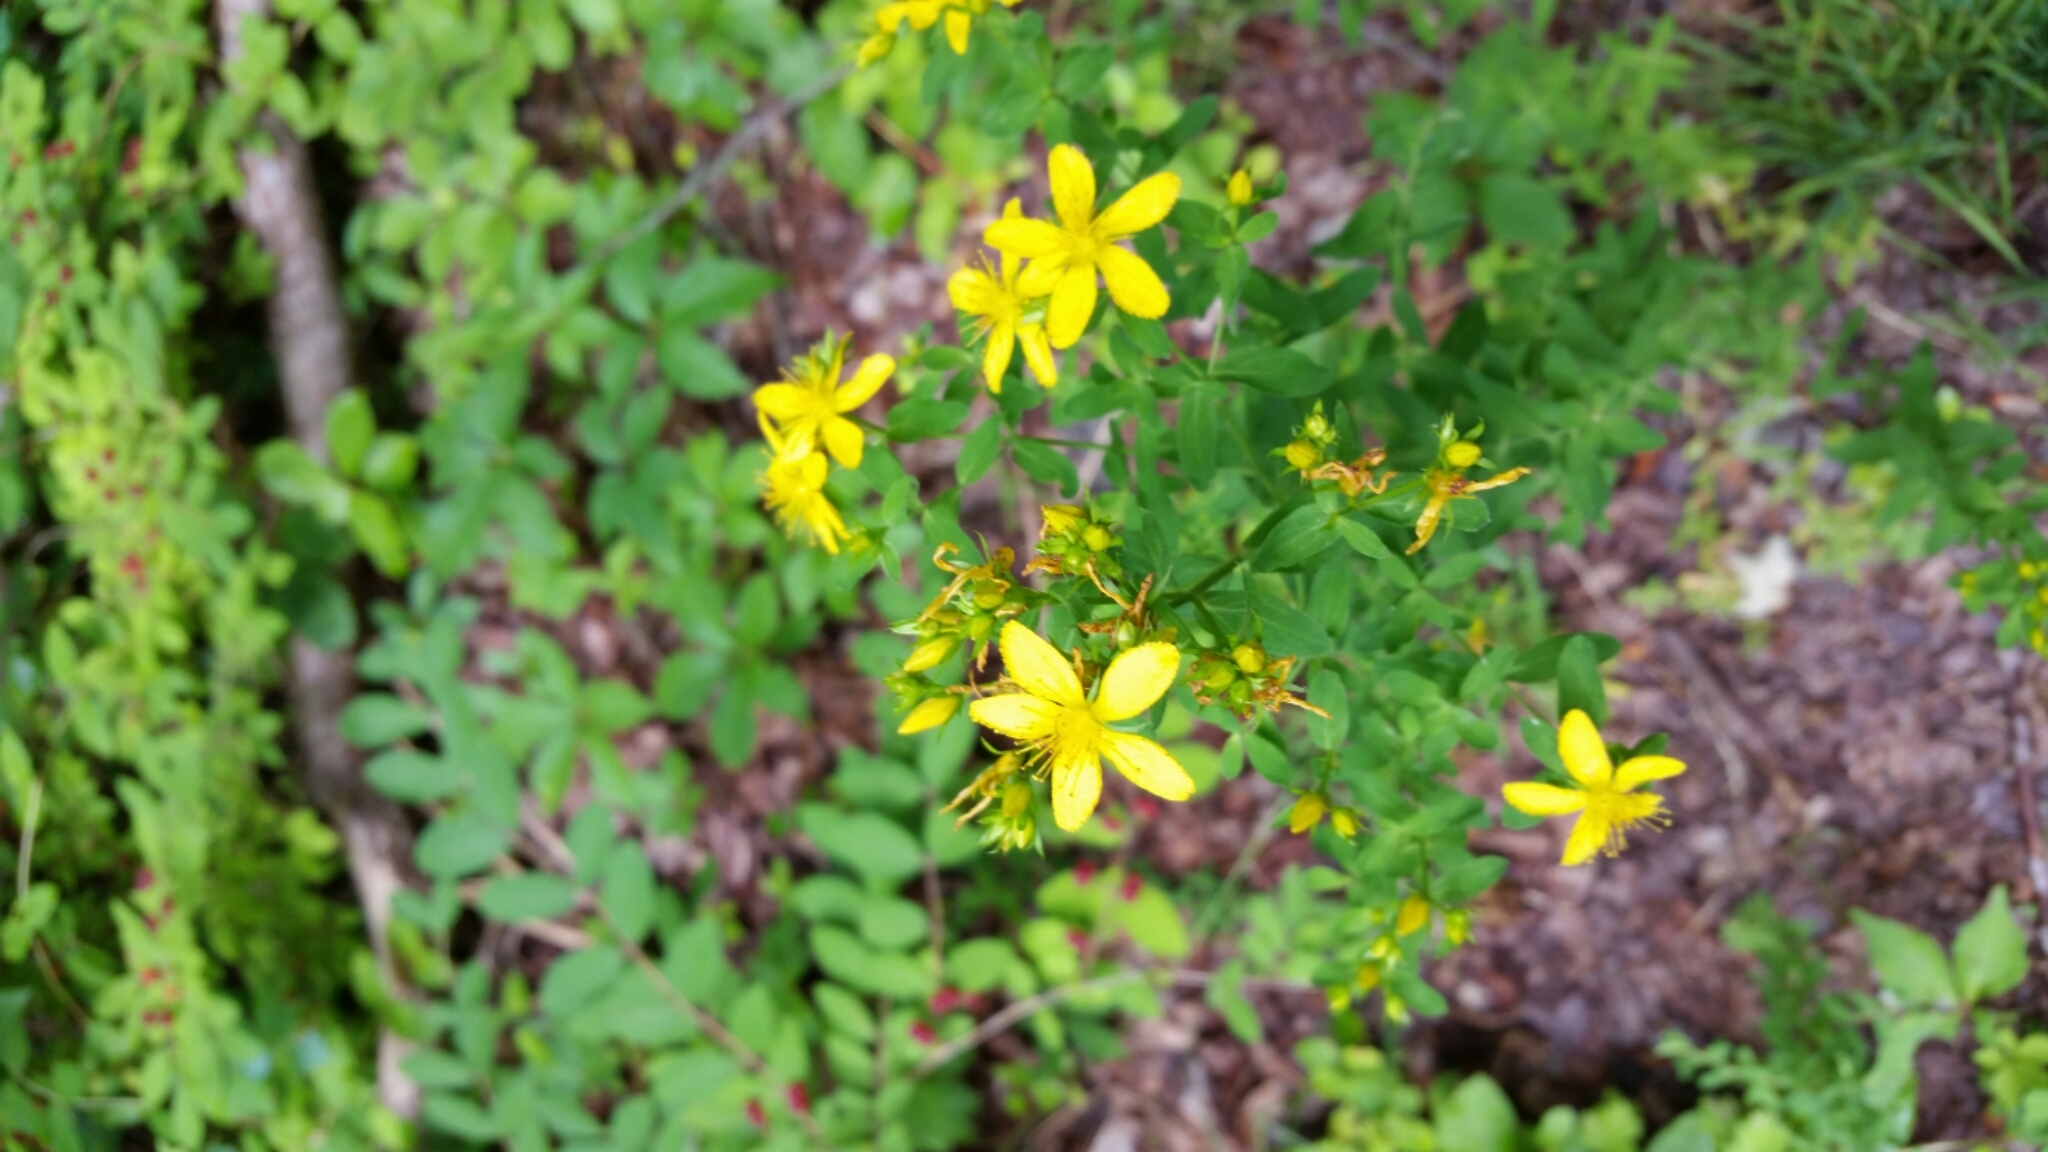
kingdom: Plantae
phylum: Tracheophyta
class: Magnoliopsida
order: Malpighiales
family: Hypericaceae
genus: Hypericum
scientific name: Hypericum perforatum
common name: Common st. johnswort
